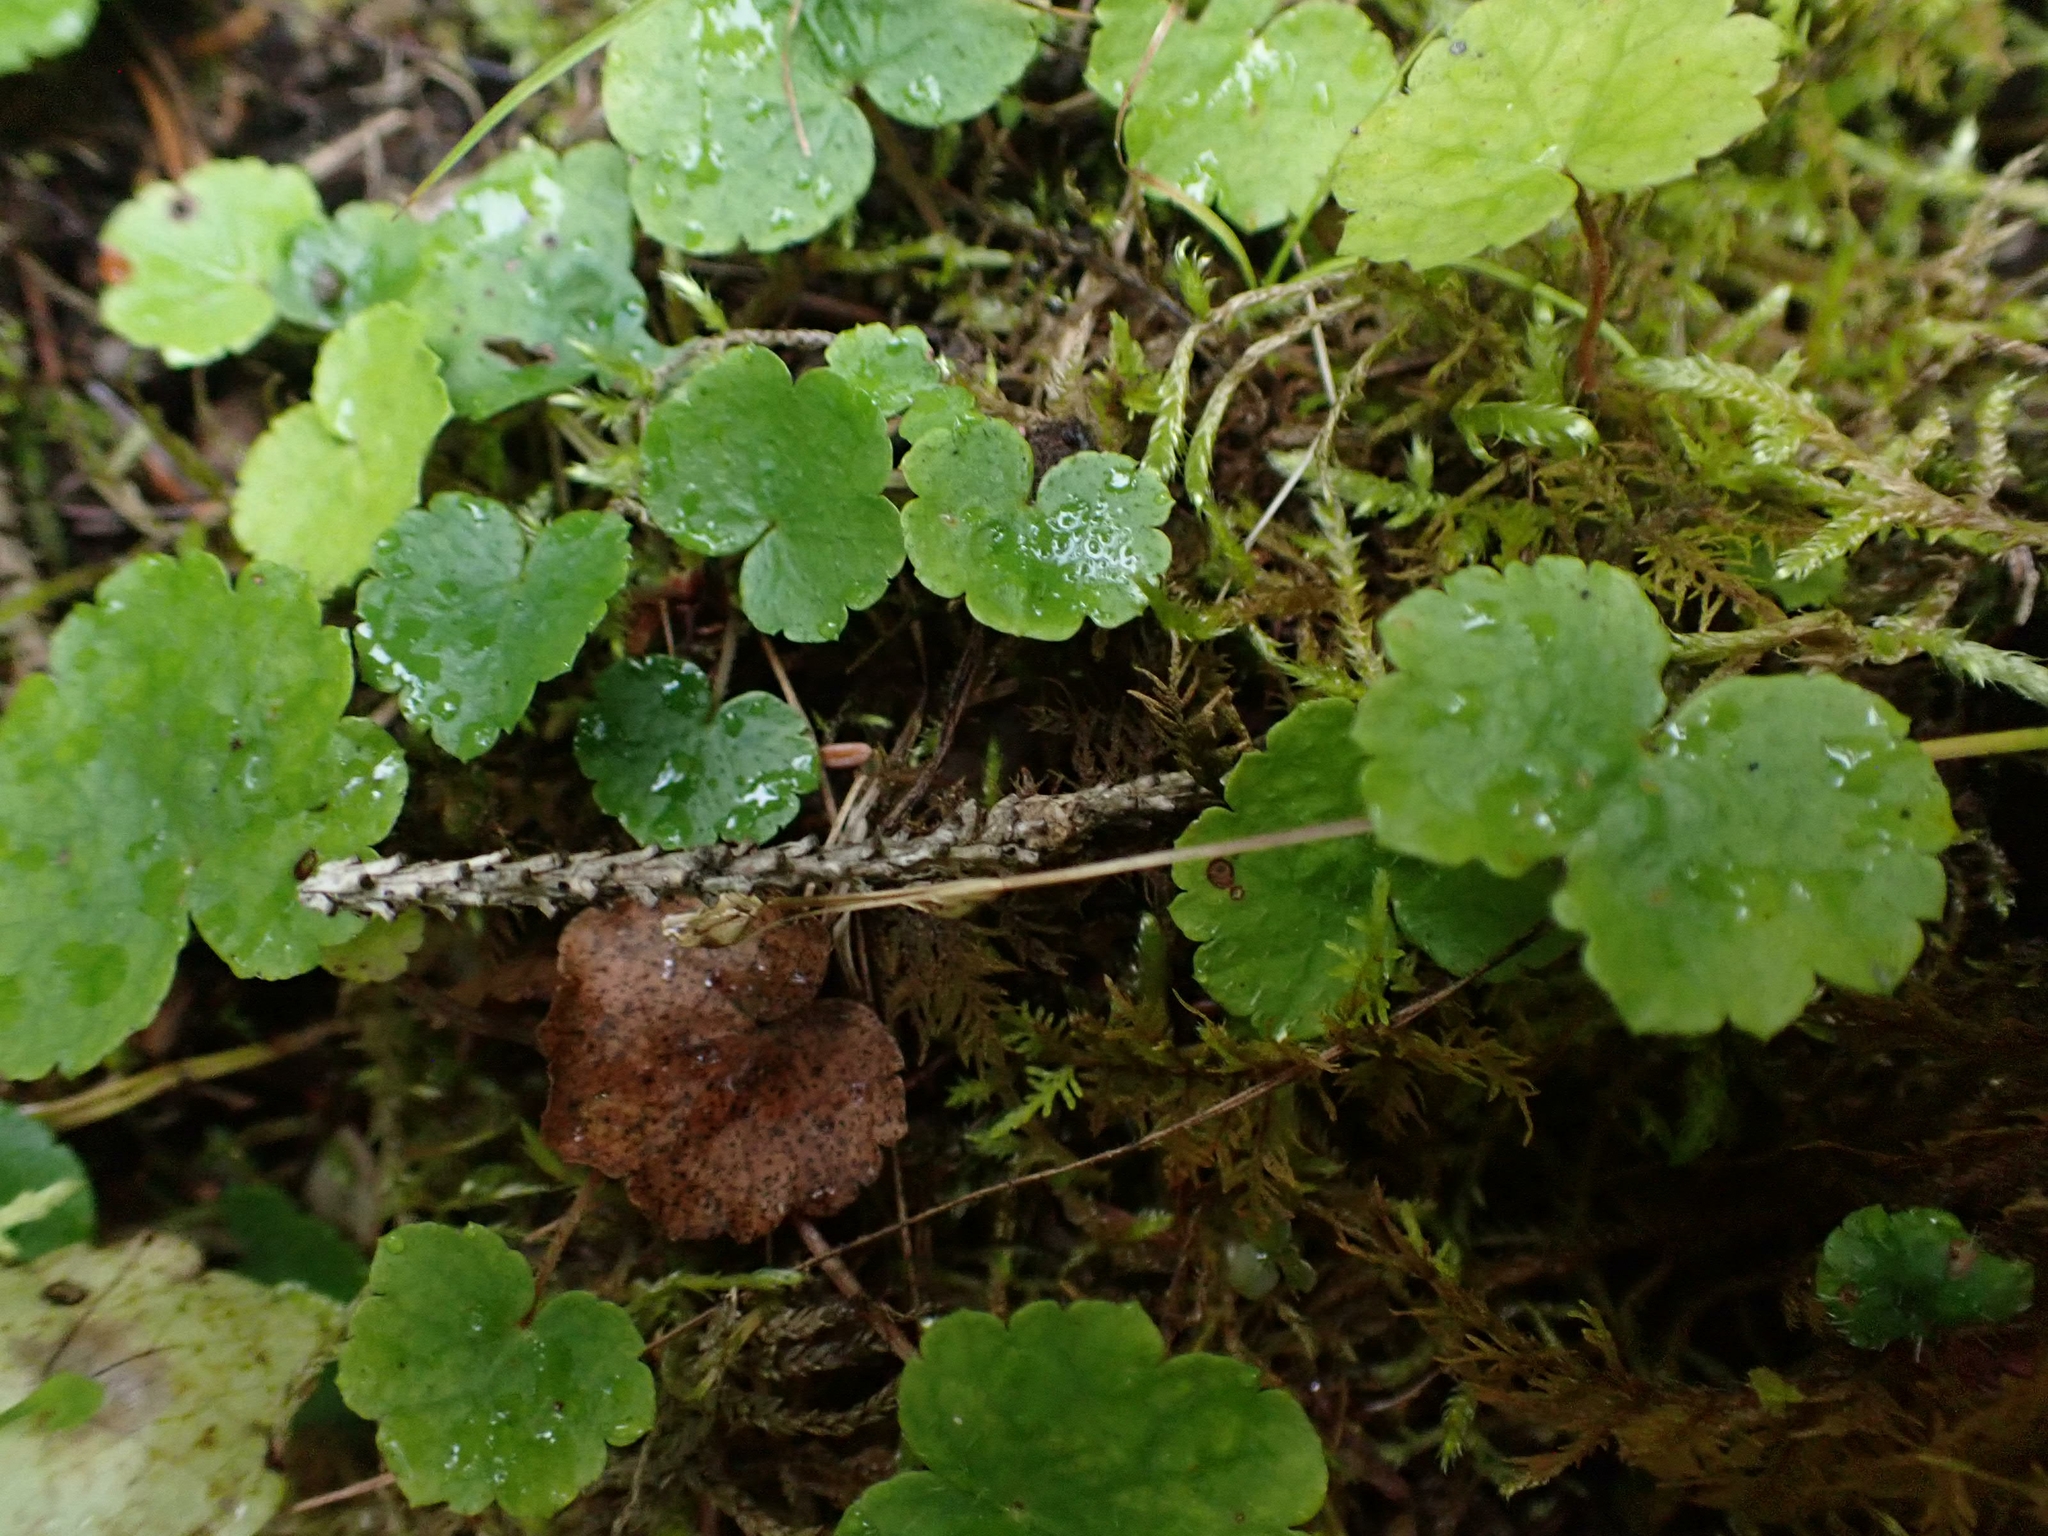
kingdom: Plantae
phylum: Tracheophyta
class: Magnoliopsida
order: Saxifragales
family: Saxifragaceae
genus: Mitella
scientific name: Mitella nuda
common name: Bare-stemmed bishop's-cap
